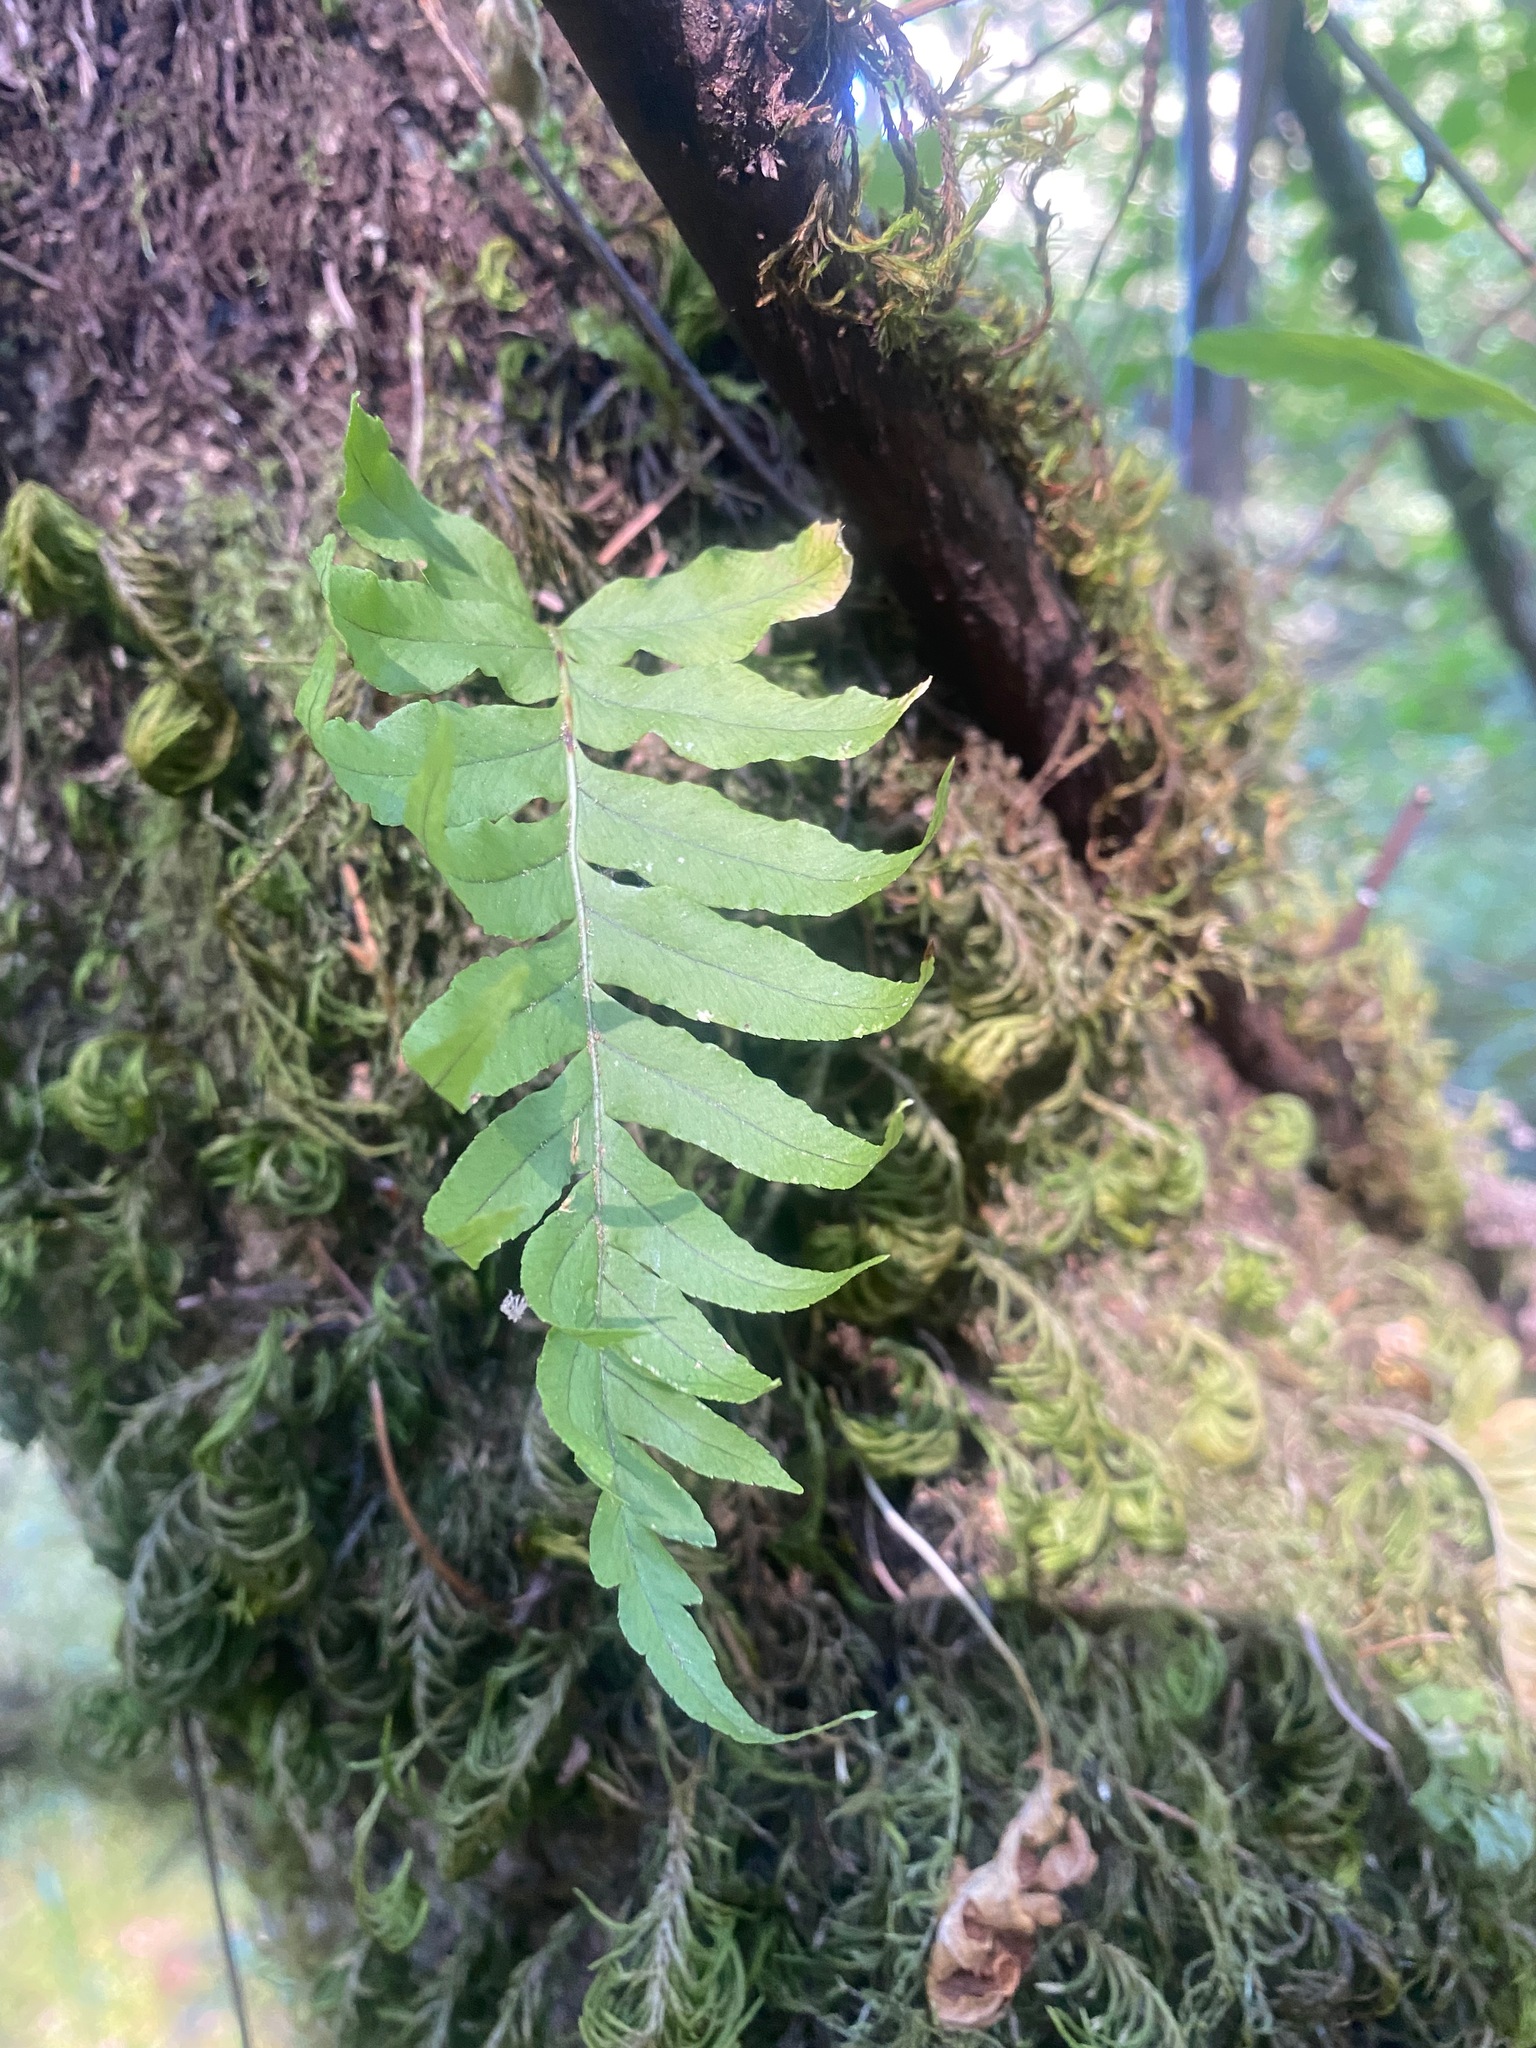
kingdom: Plantae
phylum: Tracheophyta
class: Polypodiopsida
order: Polypodiales
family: Polypodiaceae
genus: Polypodium
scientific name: Polypodium glycyrrhiza
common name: Licorice fern
